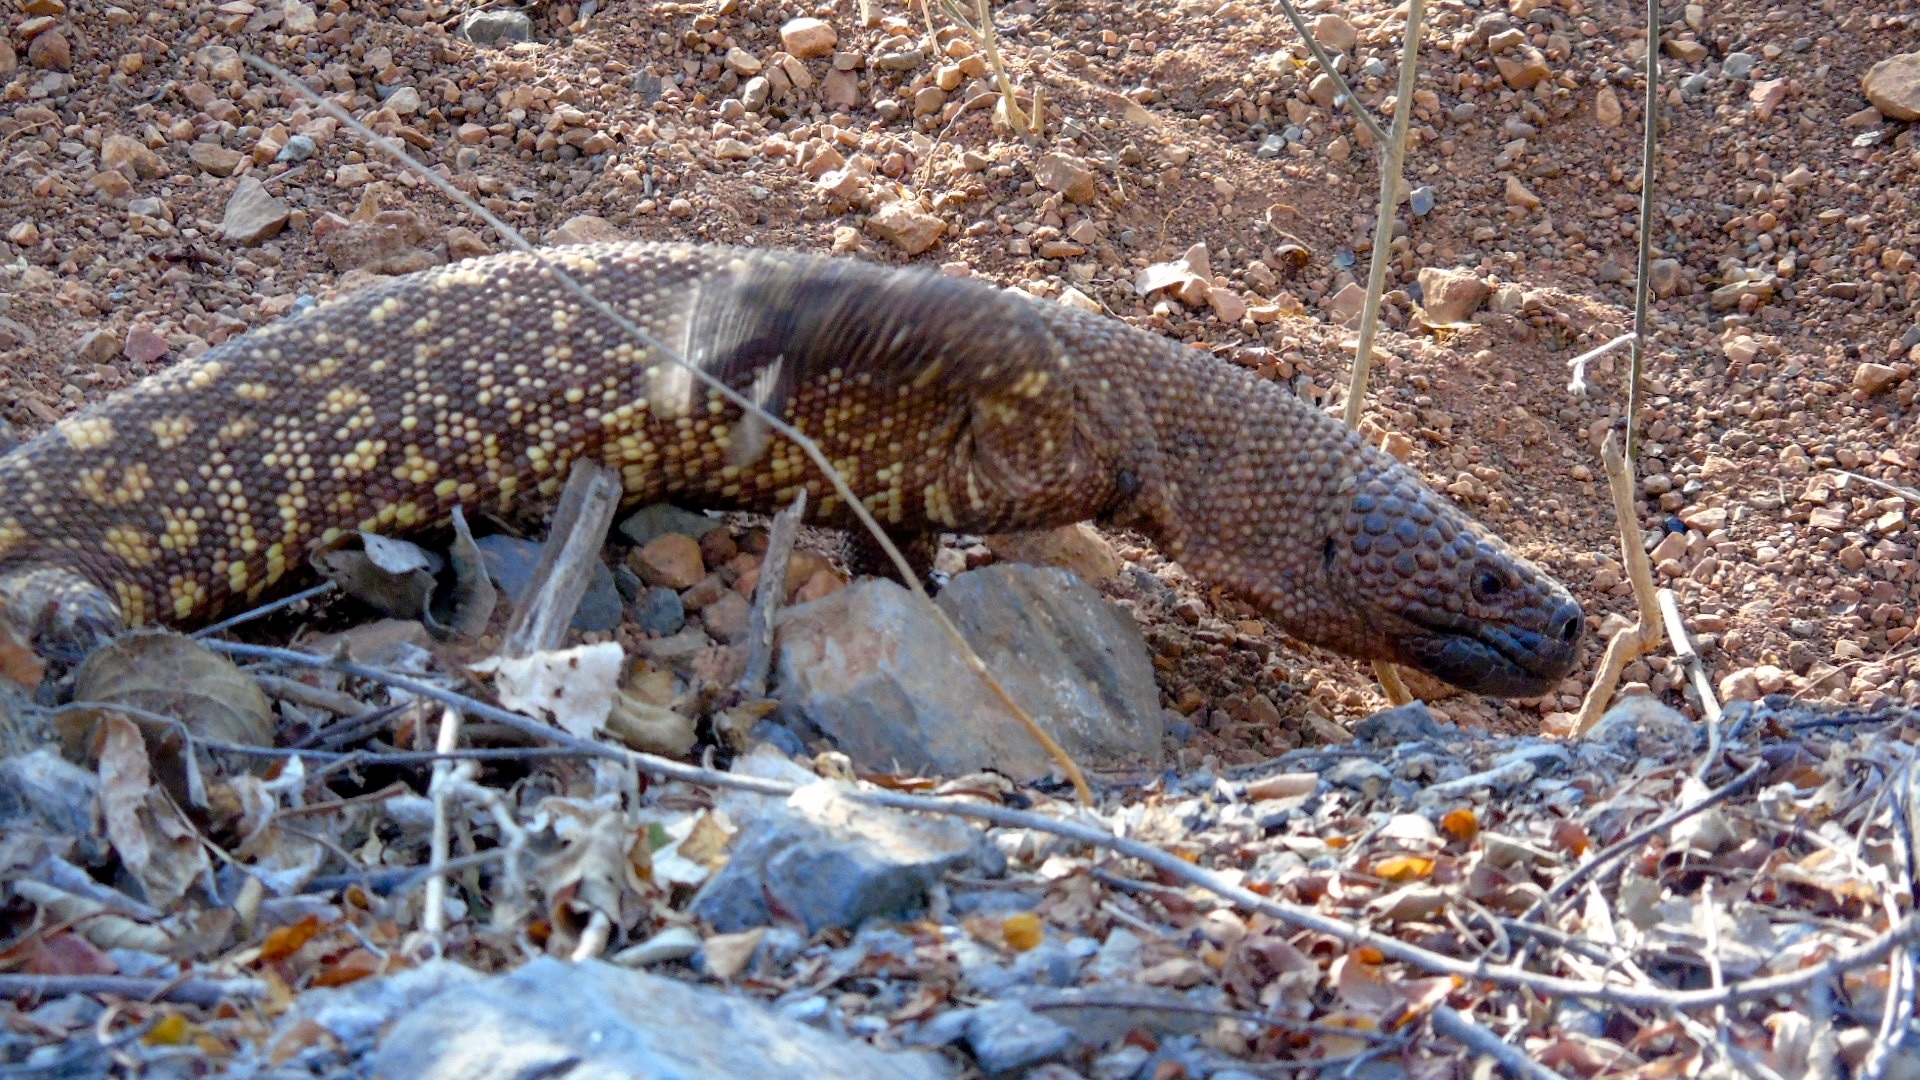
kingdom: Animalia
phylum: Chordata
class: Squamata
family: Helodermatidae
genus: Heloderma
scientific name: Heloderma horridum
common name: Mexican beaded lizard
